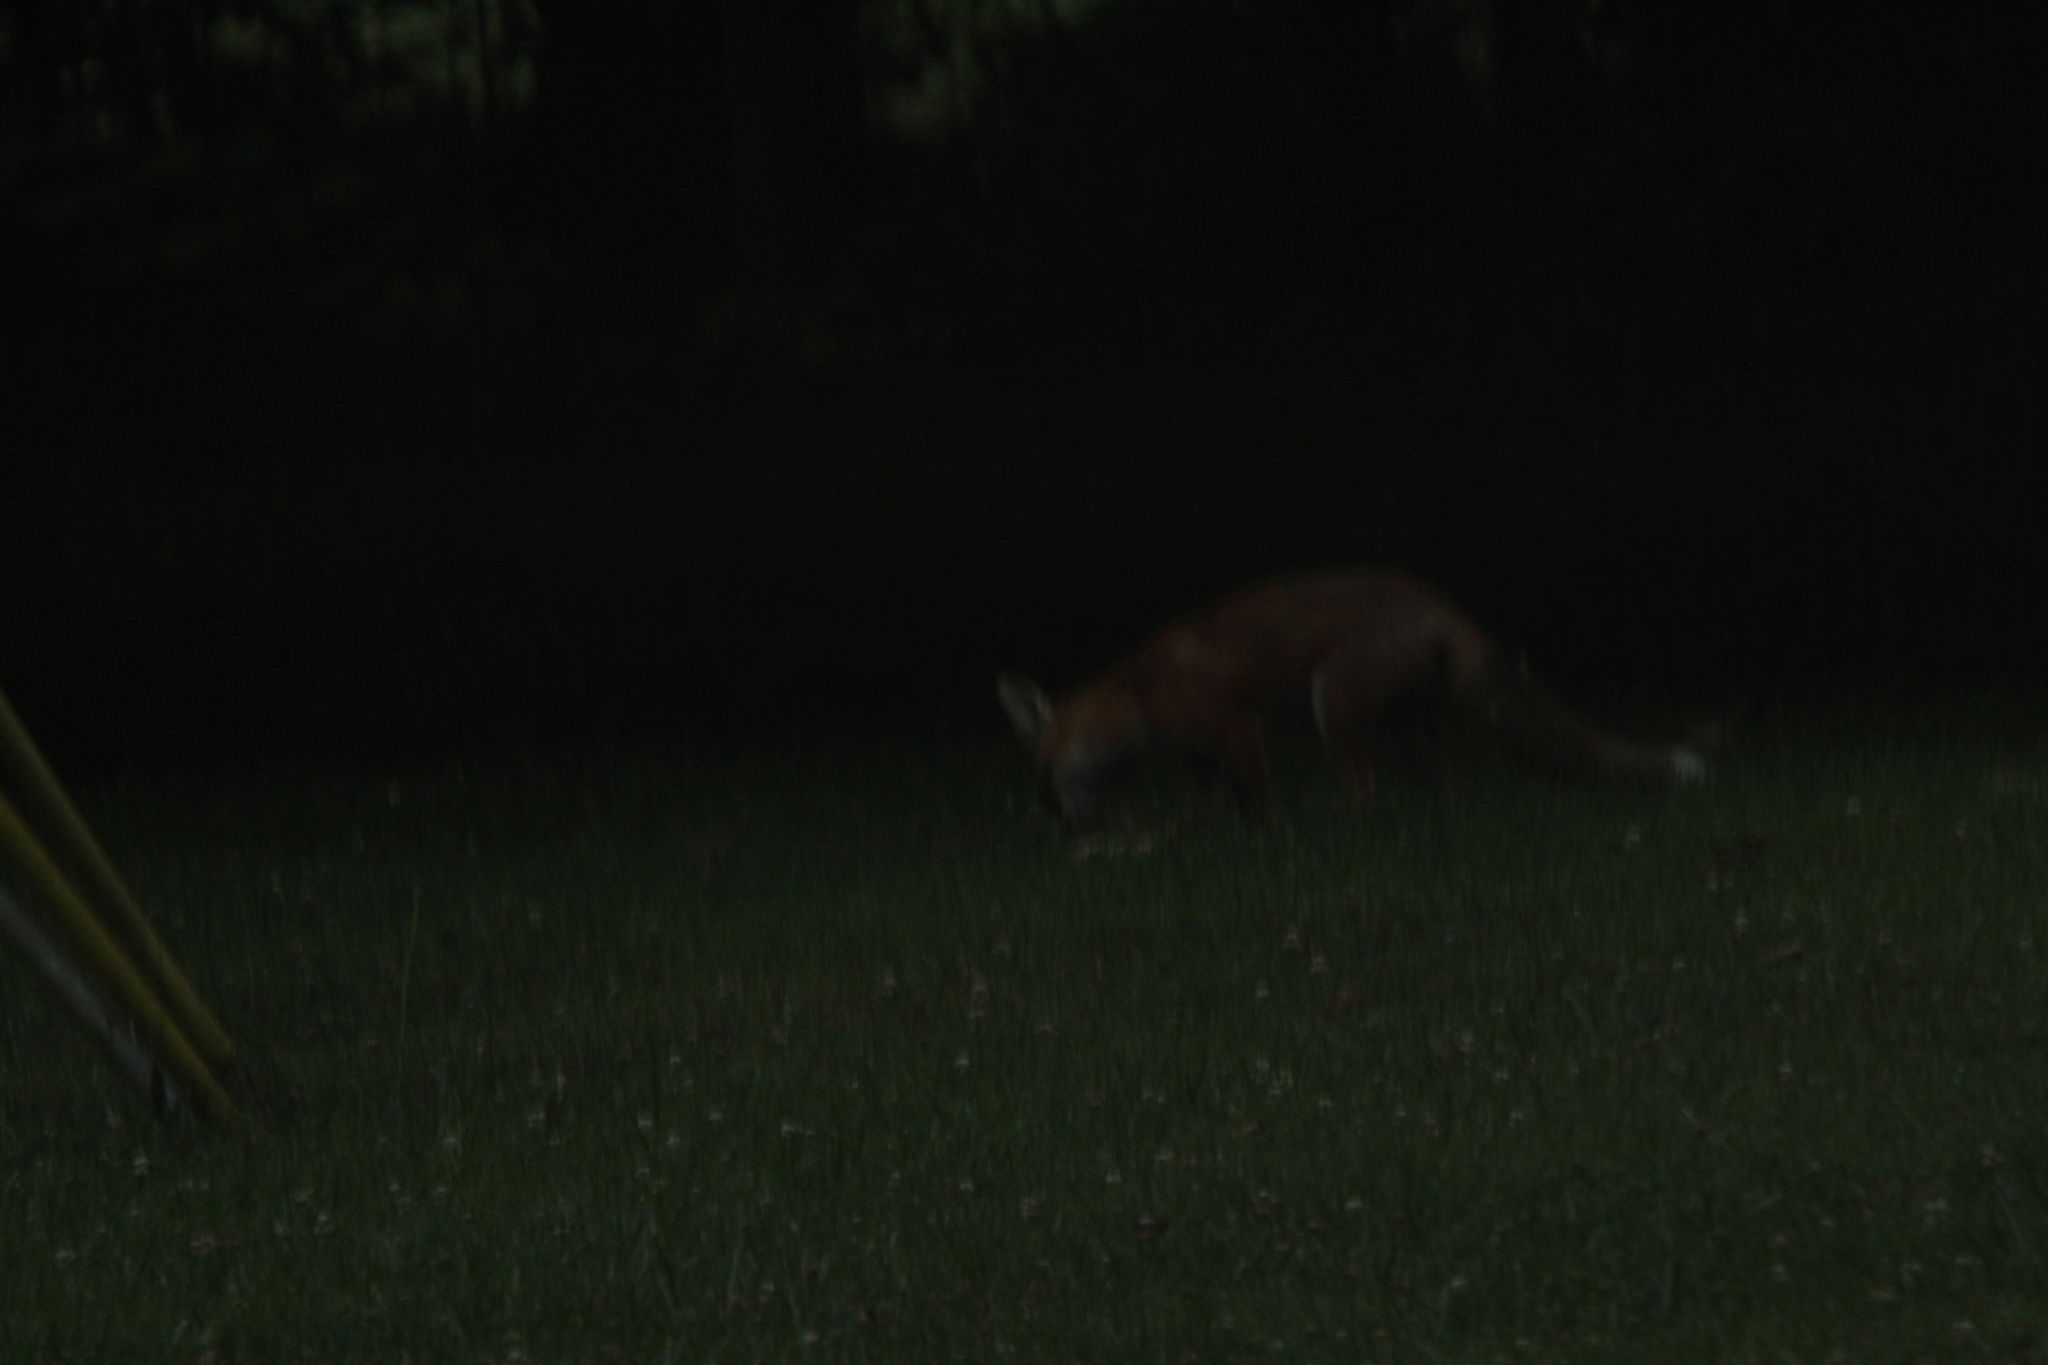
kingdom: Animalia
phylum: Chordata
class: Mammalia
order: Carnivora
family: Canidae
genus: Vulpes
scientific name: Vulpes vulpes
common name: Red fox
